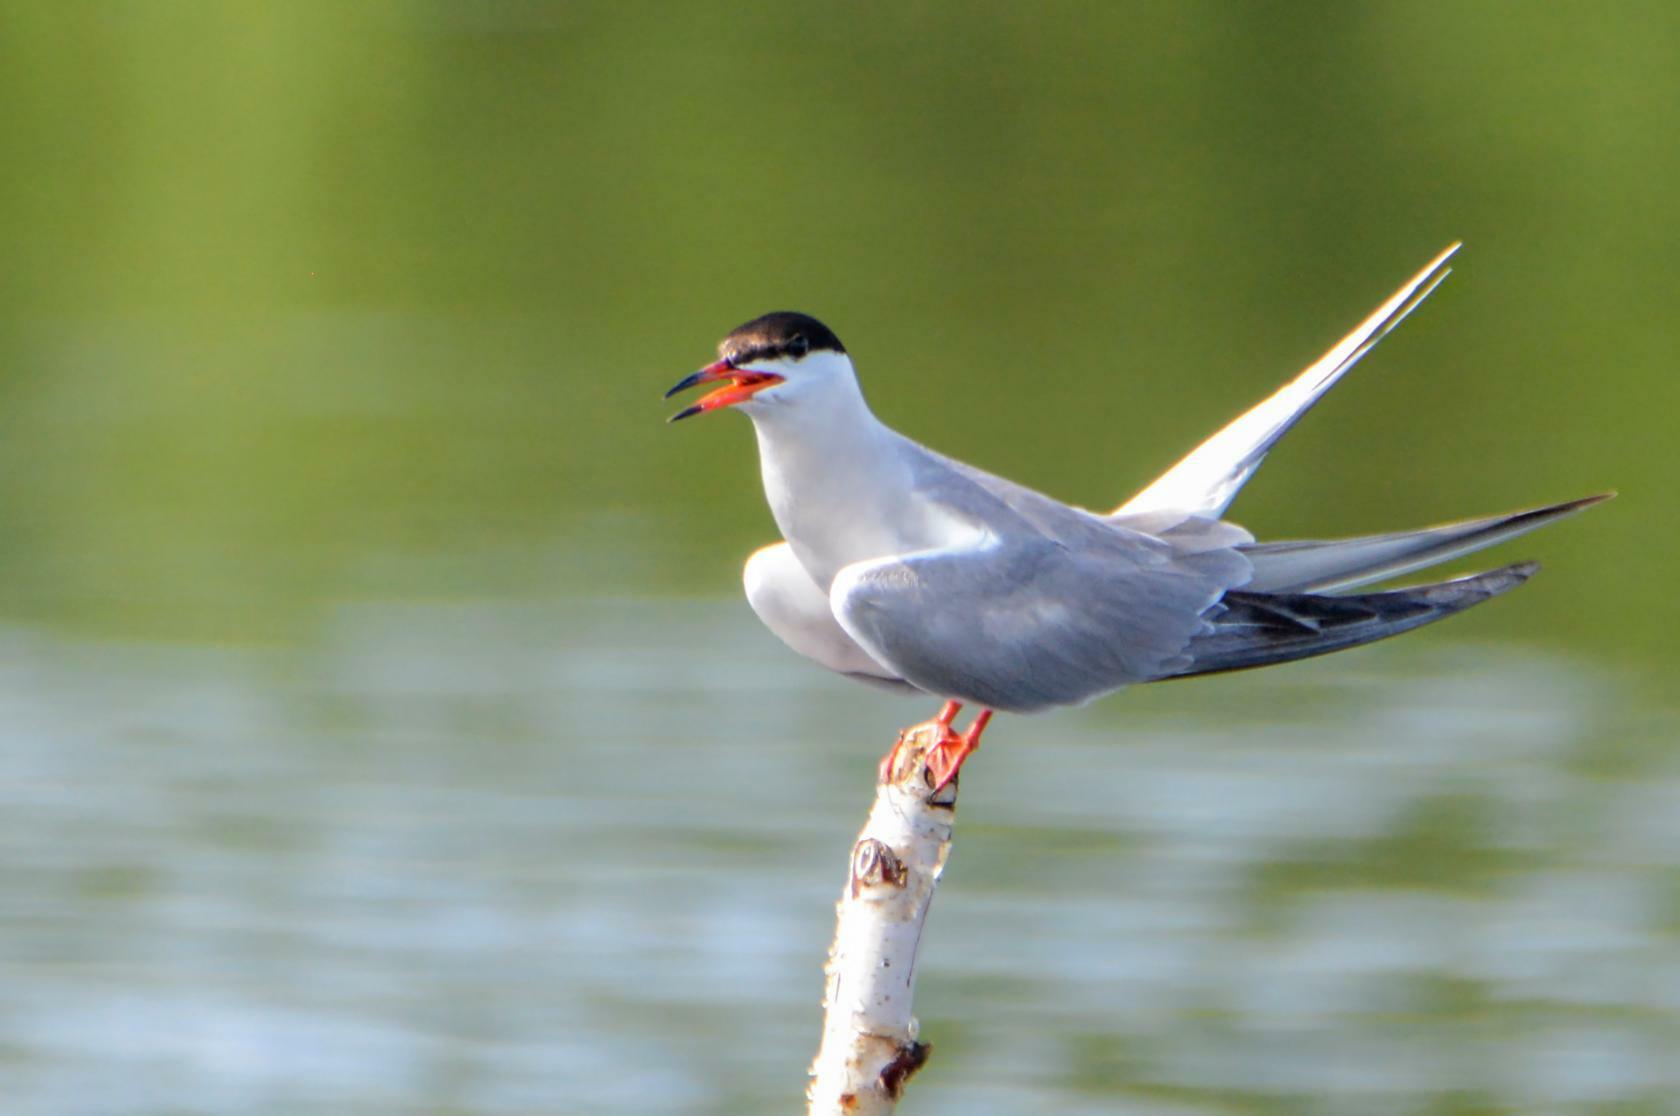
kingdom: Animalia
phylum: Chordata
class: Aves
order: Charadriiformes
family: Laridae
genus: Sterna
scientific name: Sterna hirundo
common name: Common tern
